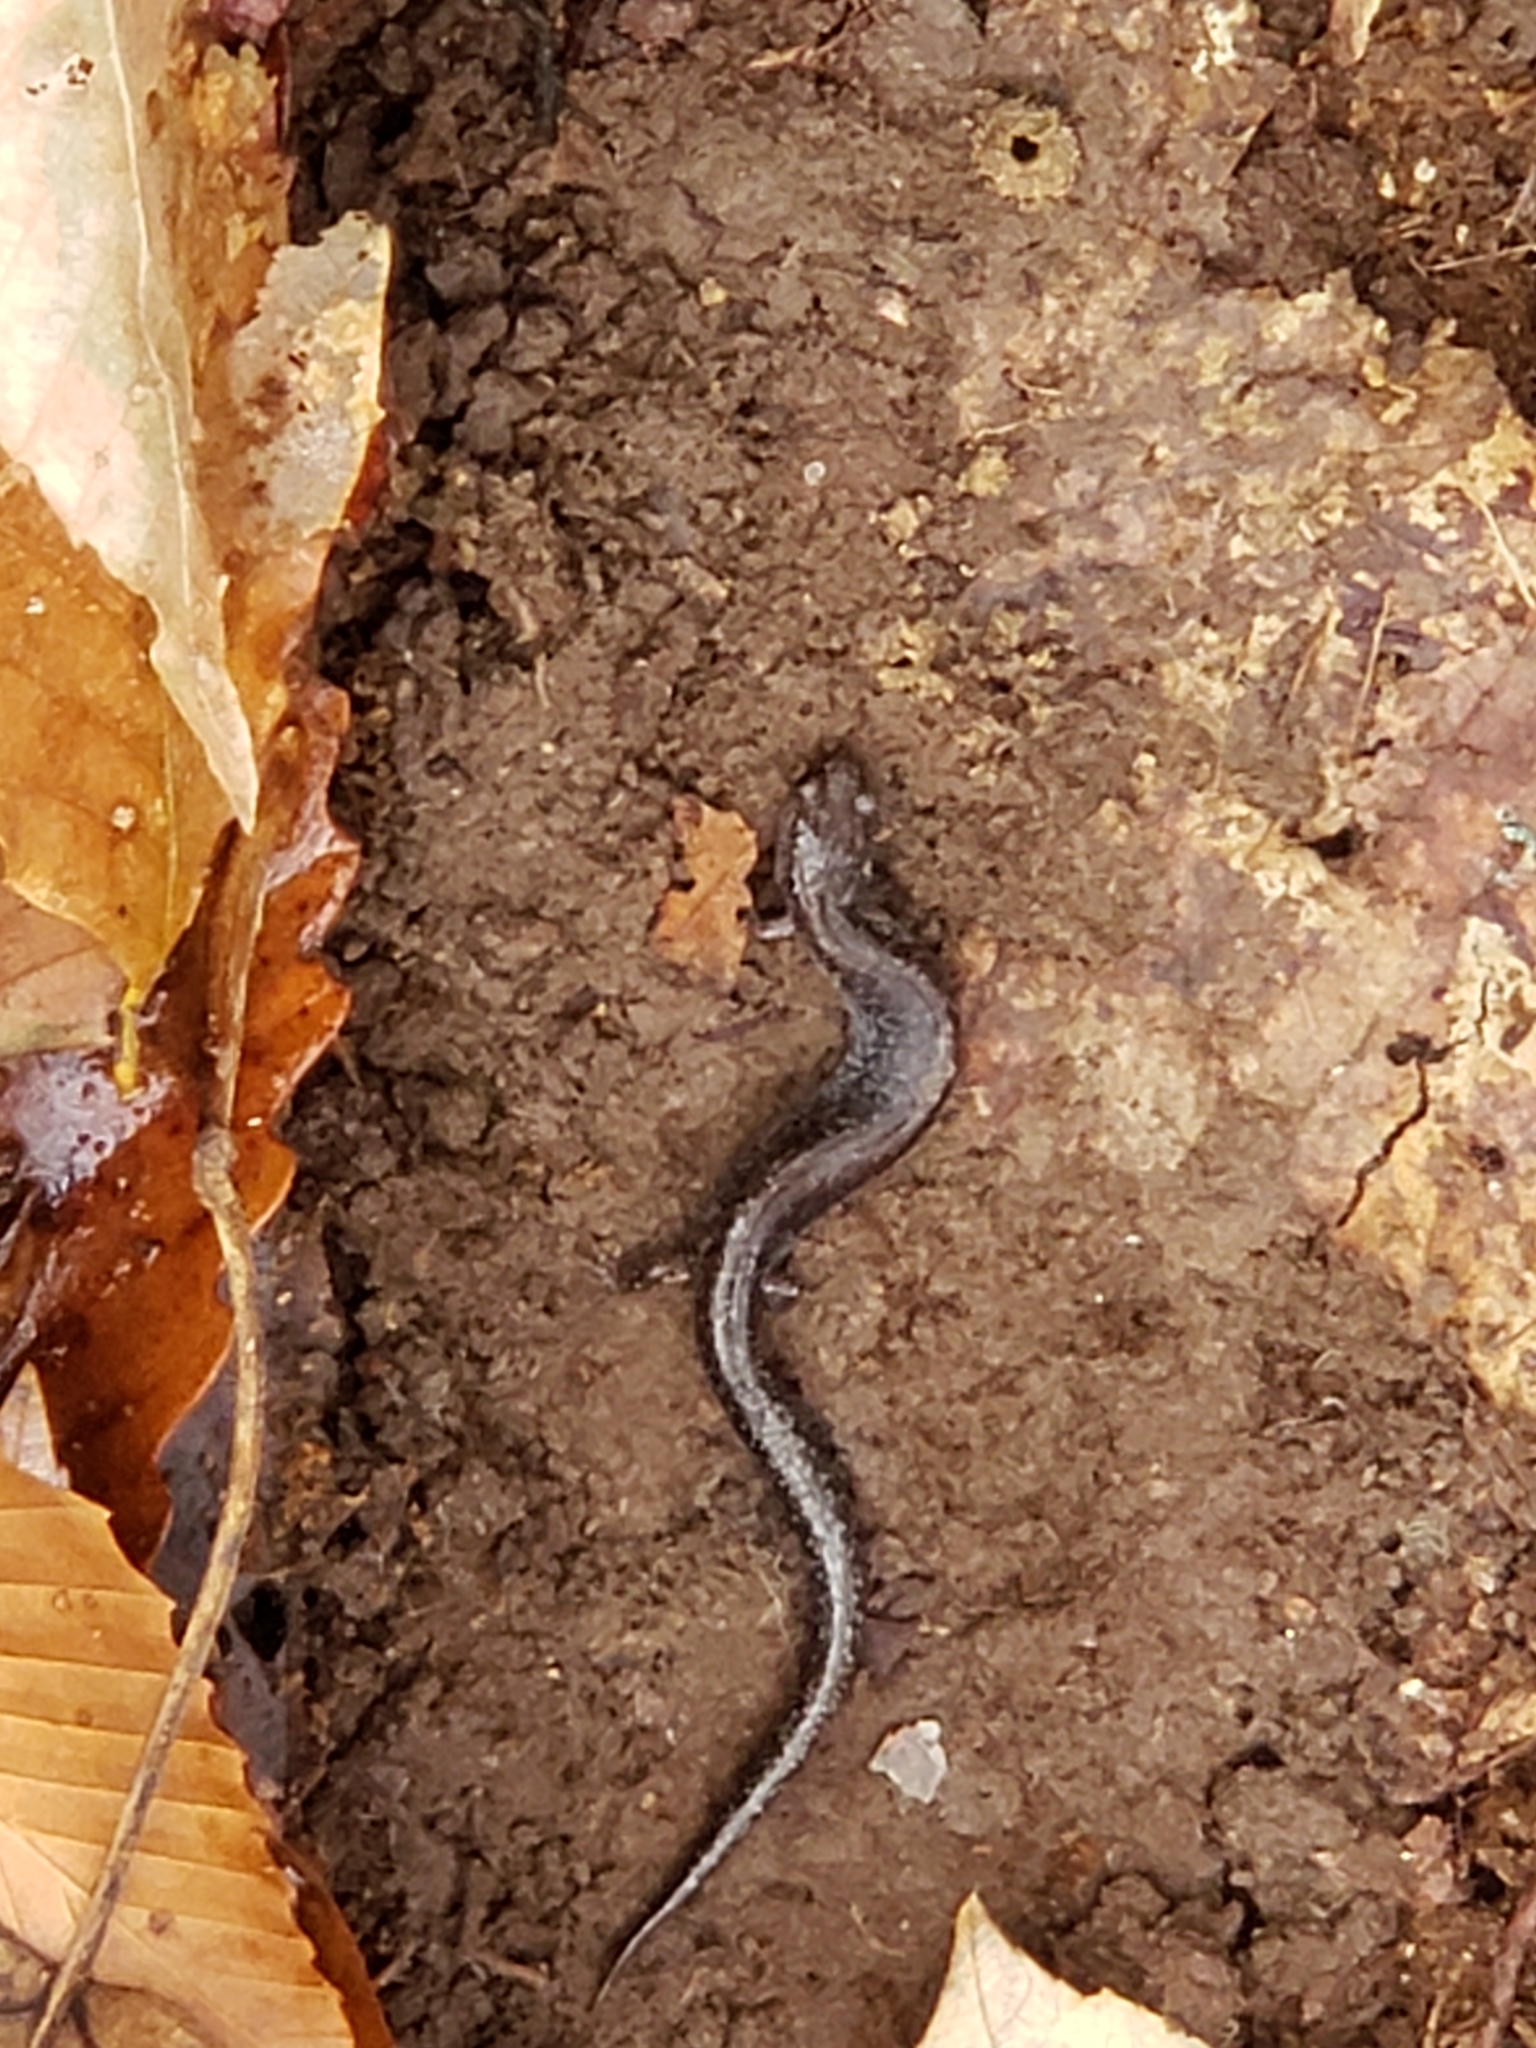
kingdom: Animalia
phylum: Chordata
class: Amphibia
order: Caudata
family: Plethodontidae
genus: Plethodon
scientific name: Plethodon cinereus
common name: Redback salamander
